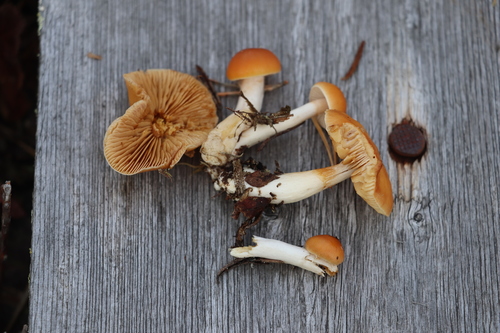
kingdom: Fungi
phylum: Basidiomycota
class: Agaricomycetes
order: Agaricales
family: Cortinariaceae
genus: Thaxterogaster
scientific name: Thaxterogaster vibratilis
